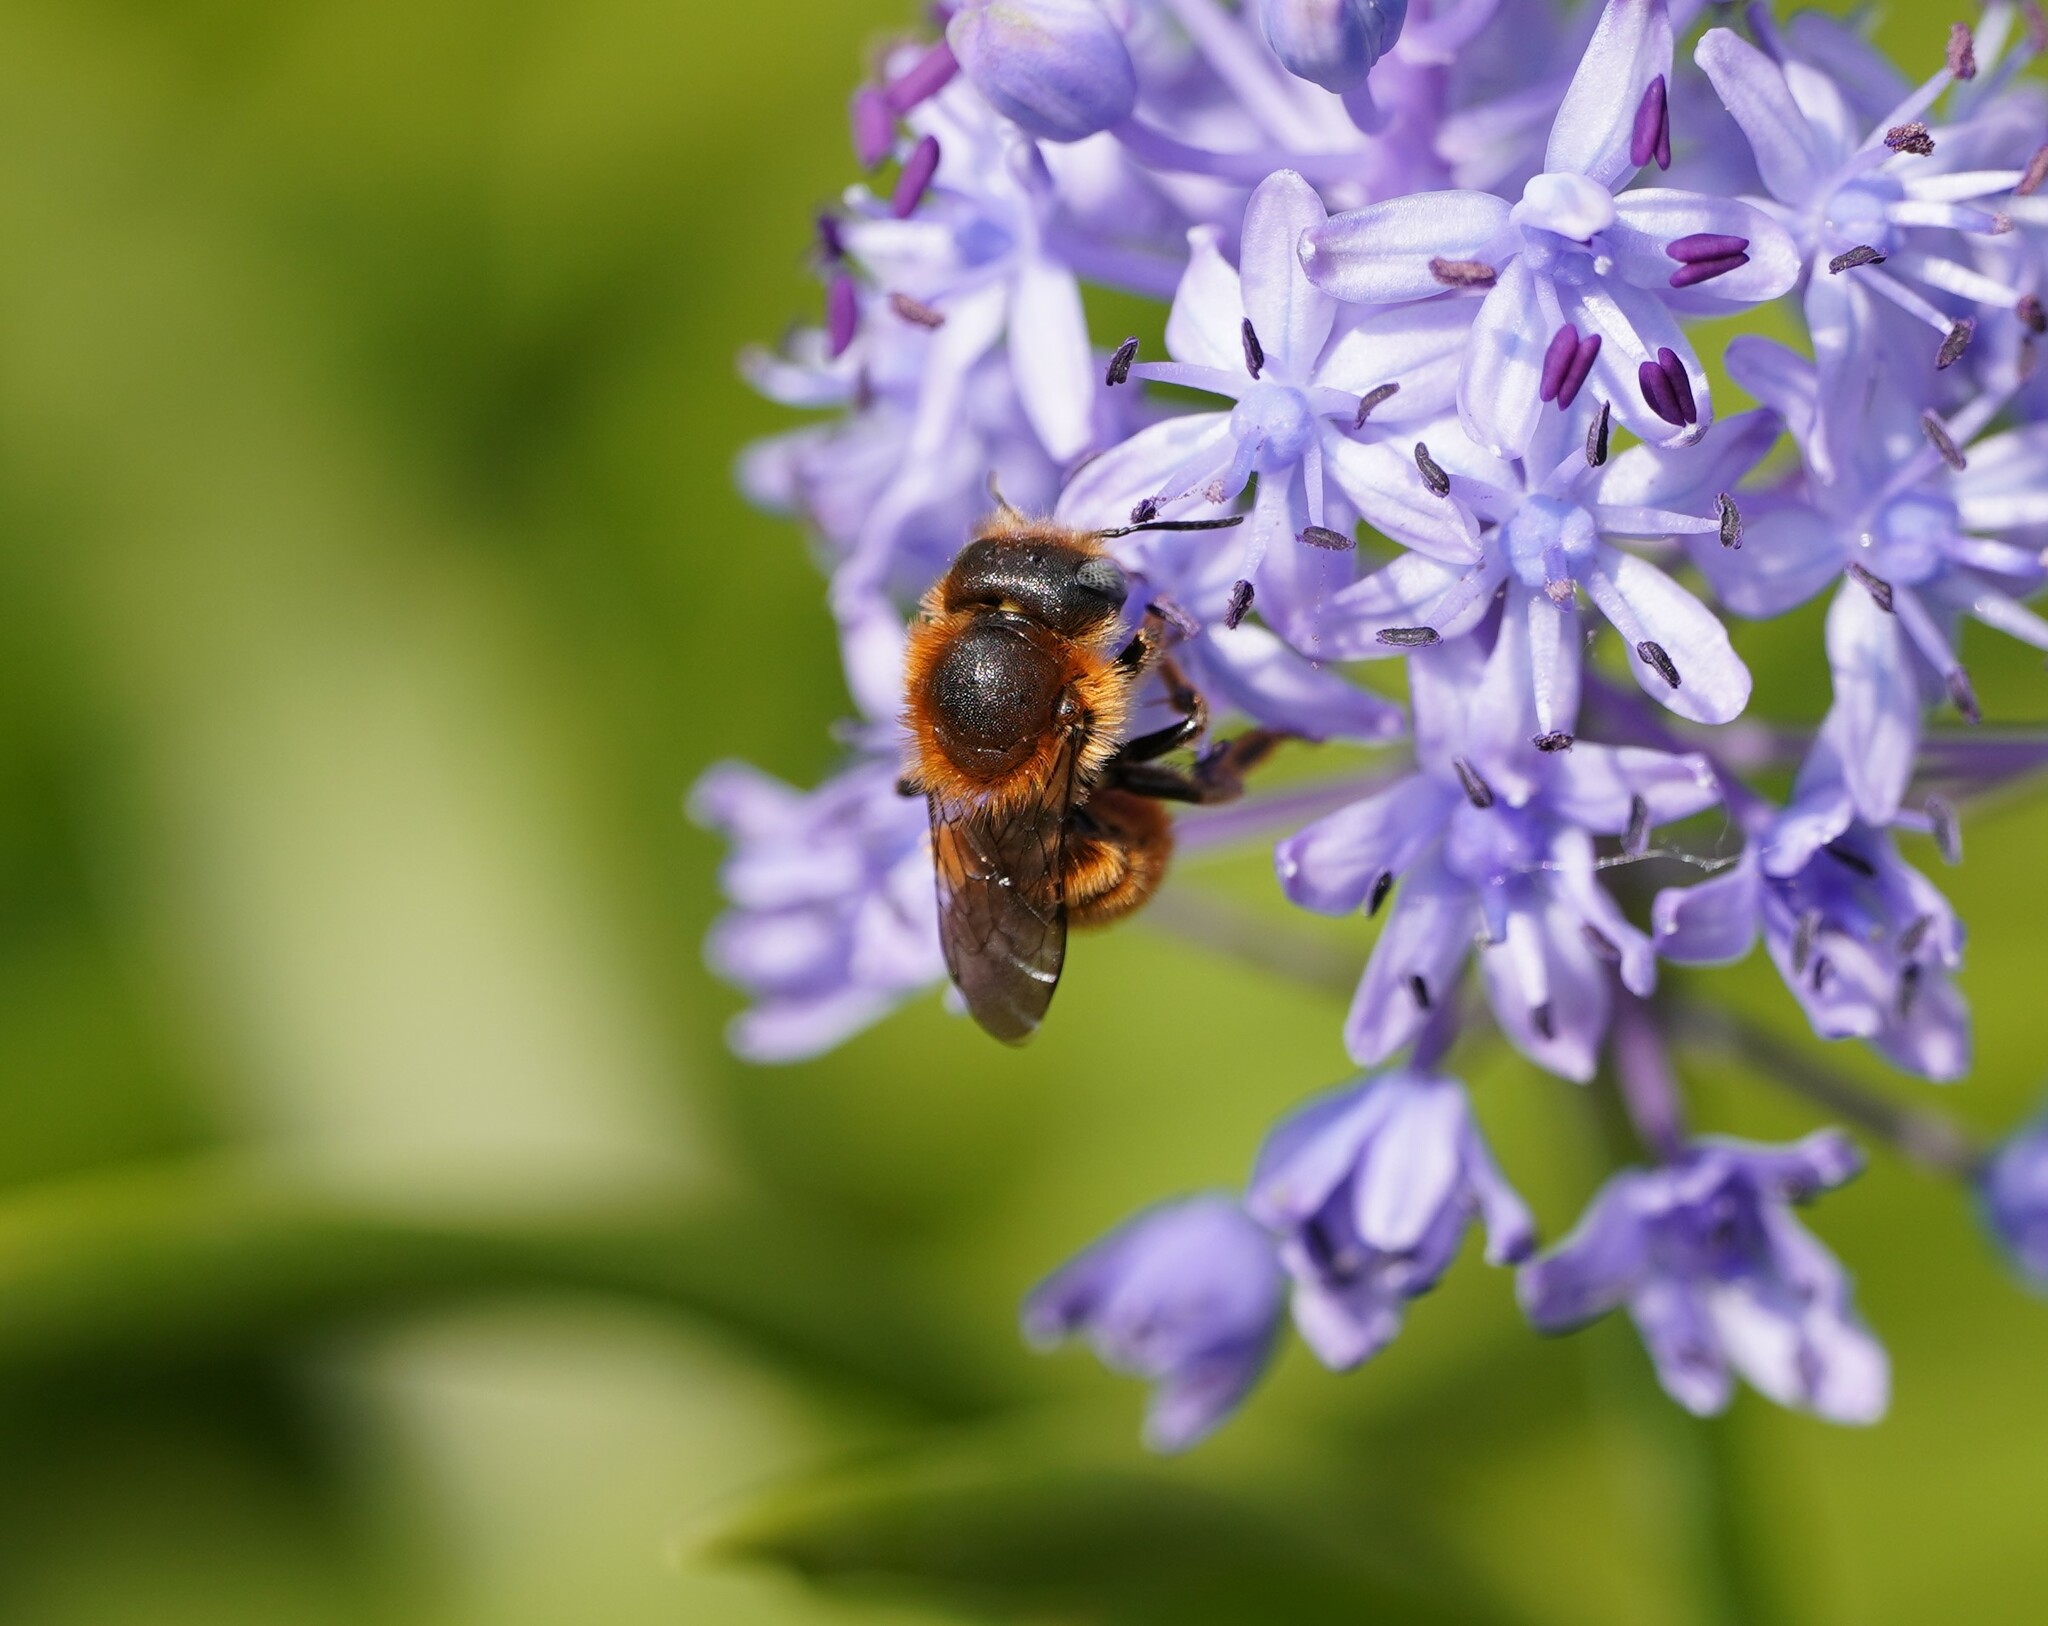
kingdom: Animalia
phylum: Arthropoda
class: Insecta
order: Hymenoptera
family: Megachilidae
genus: Osmia
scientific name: Osmia aurulenta
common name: Gold-fringed mason bee
